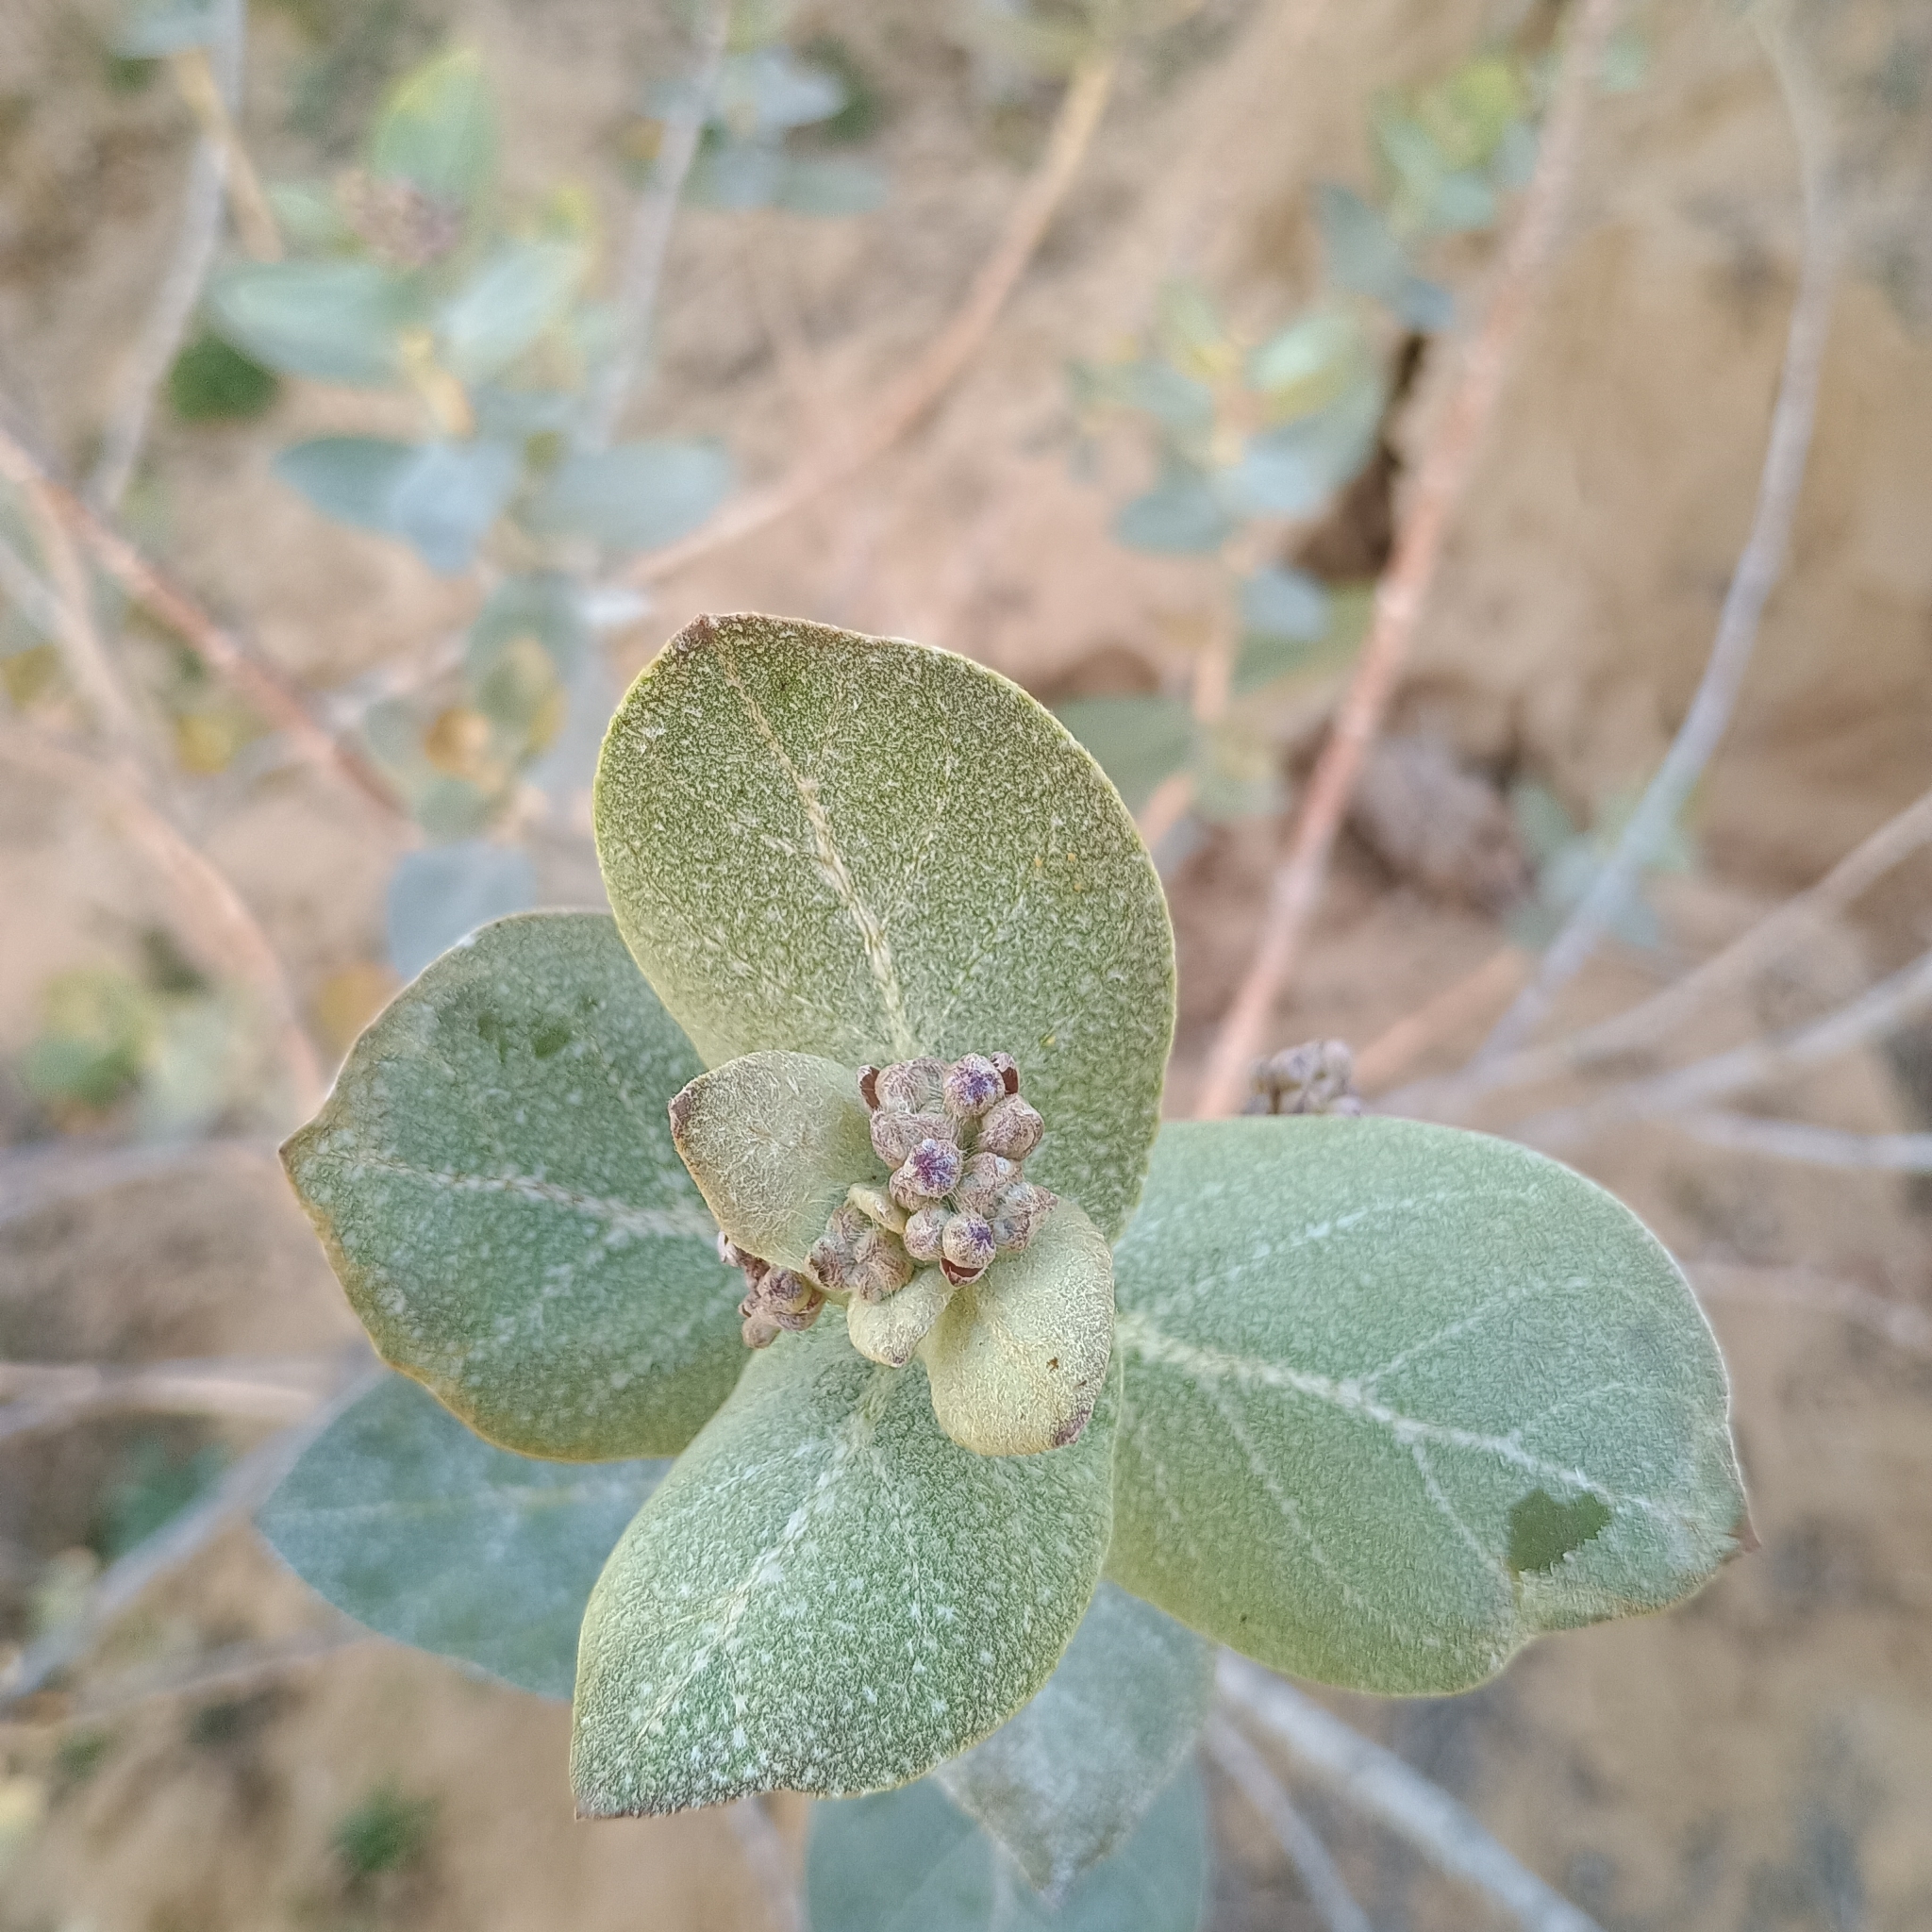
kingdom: Plantae
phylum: Tracheophyta
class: Magnoliopsida
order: Gentianales
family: Apocynaceae
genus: Calotropis
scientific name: Calotropis procera
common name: Roostertree
